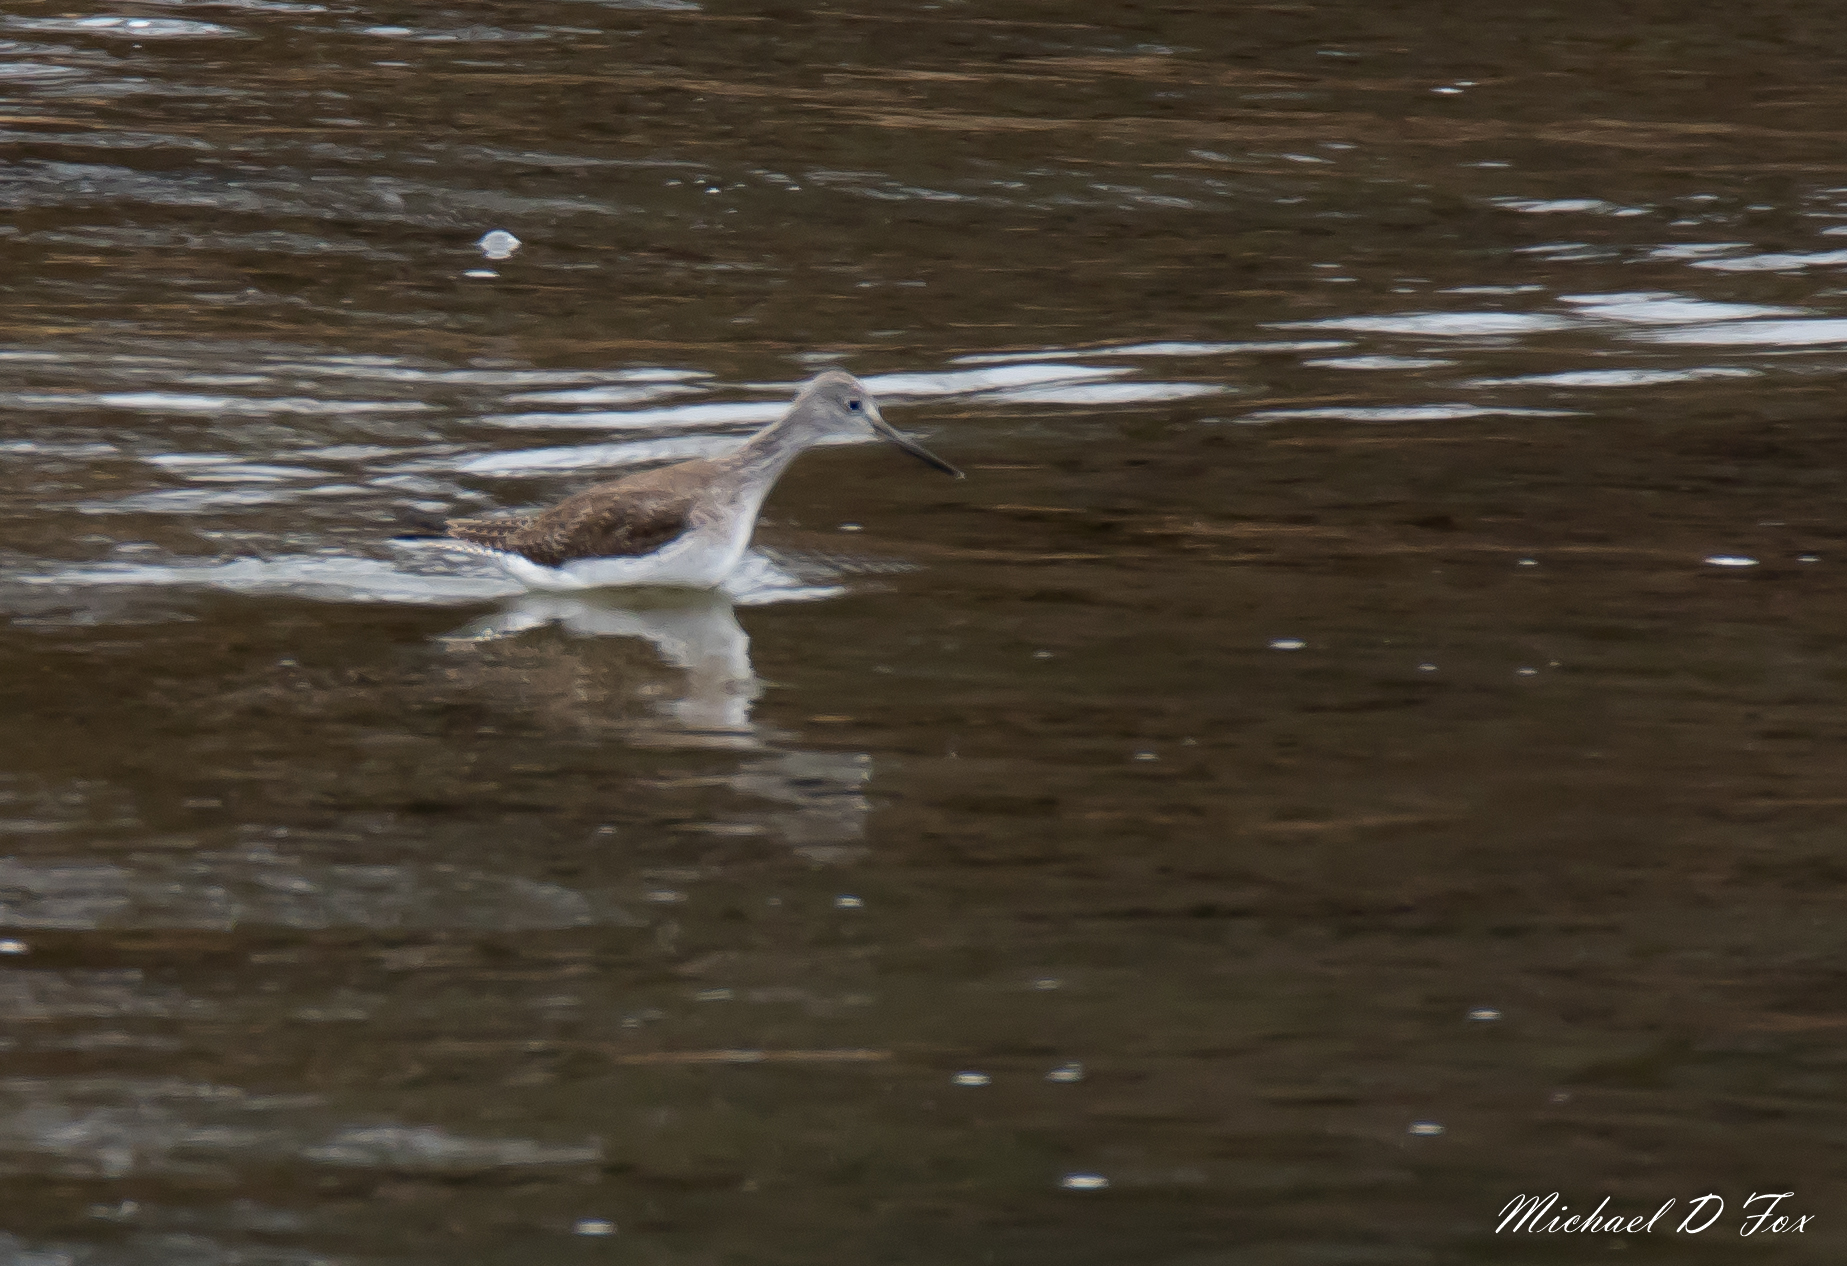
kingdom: Animalia
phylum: Chordata
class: Aves
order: Charadriiformes
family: Scolopacidae
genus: Tringa
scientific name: Tringa melanoleuca
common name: Greater yellowlegs
